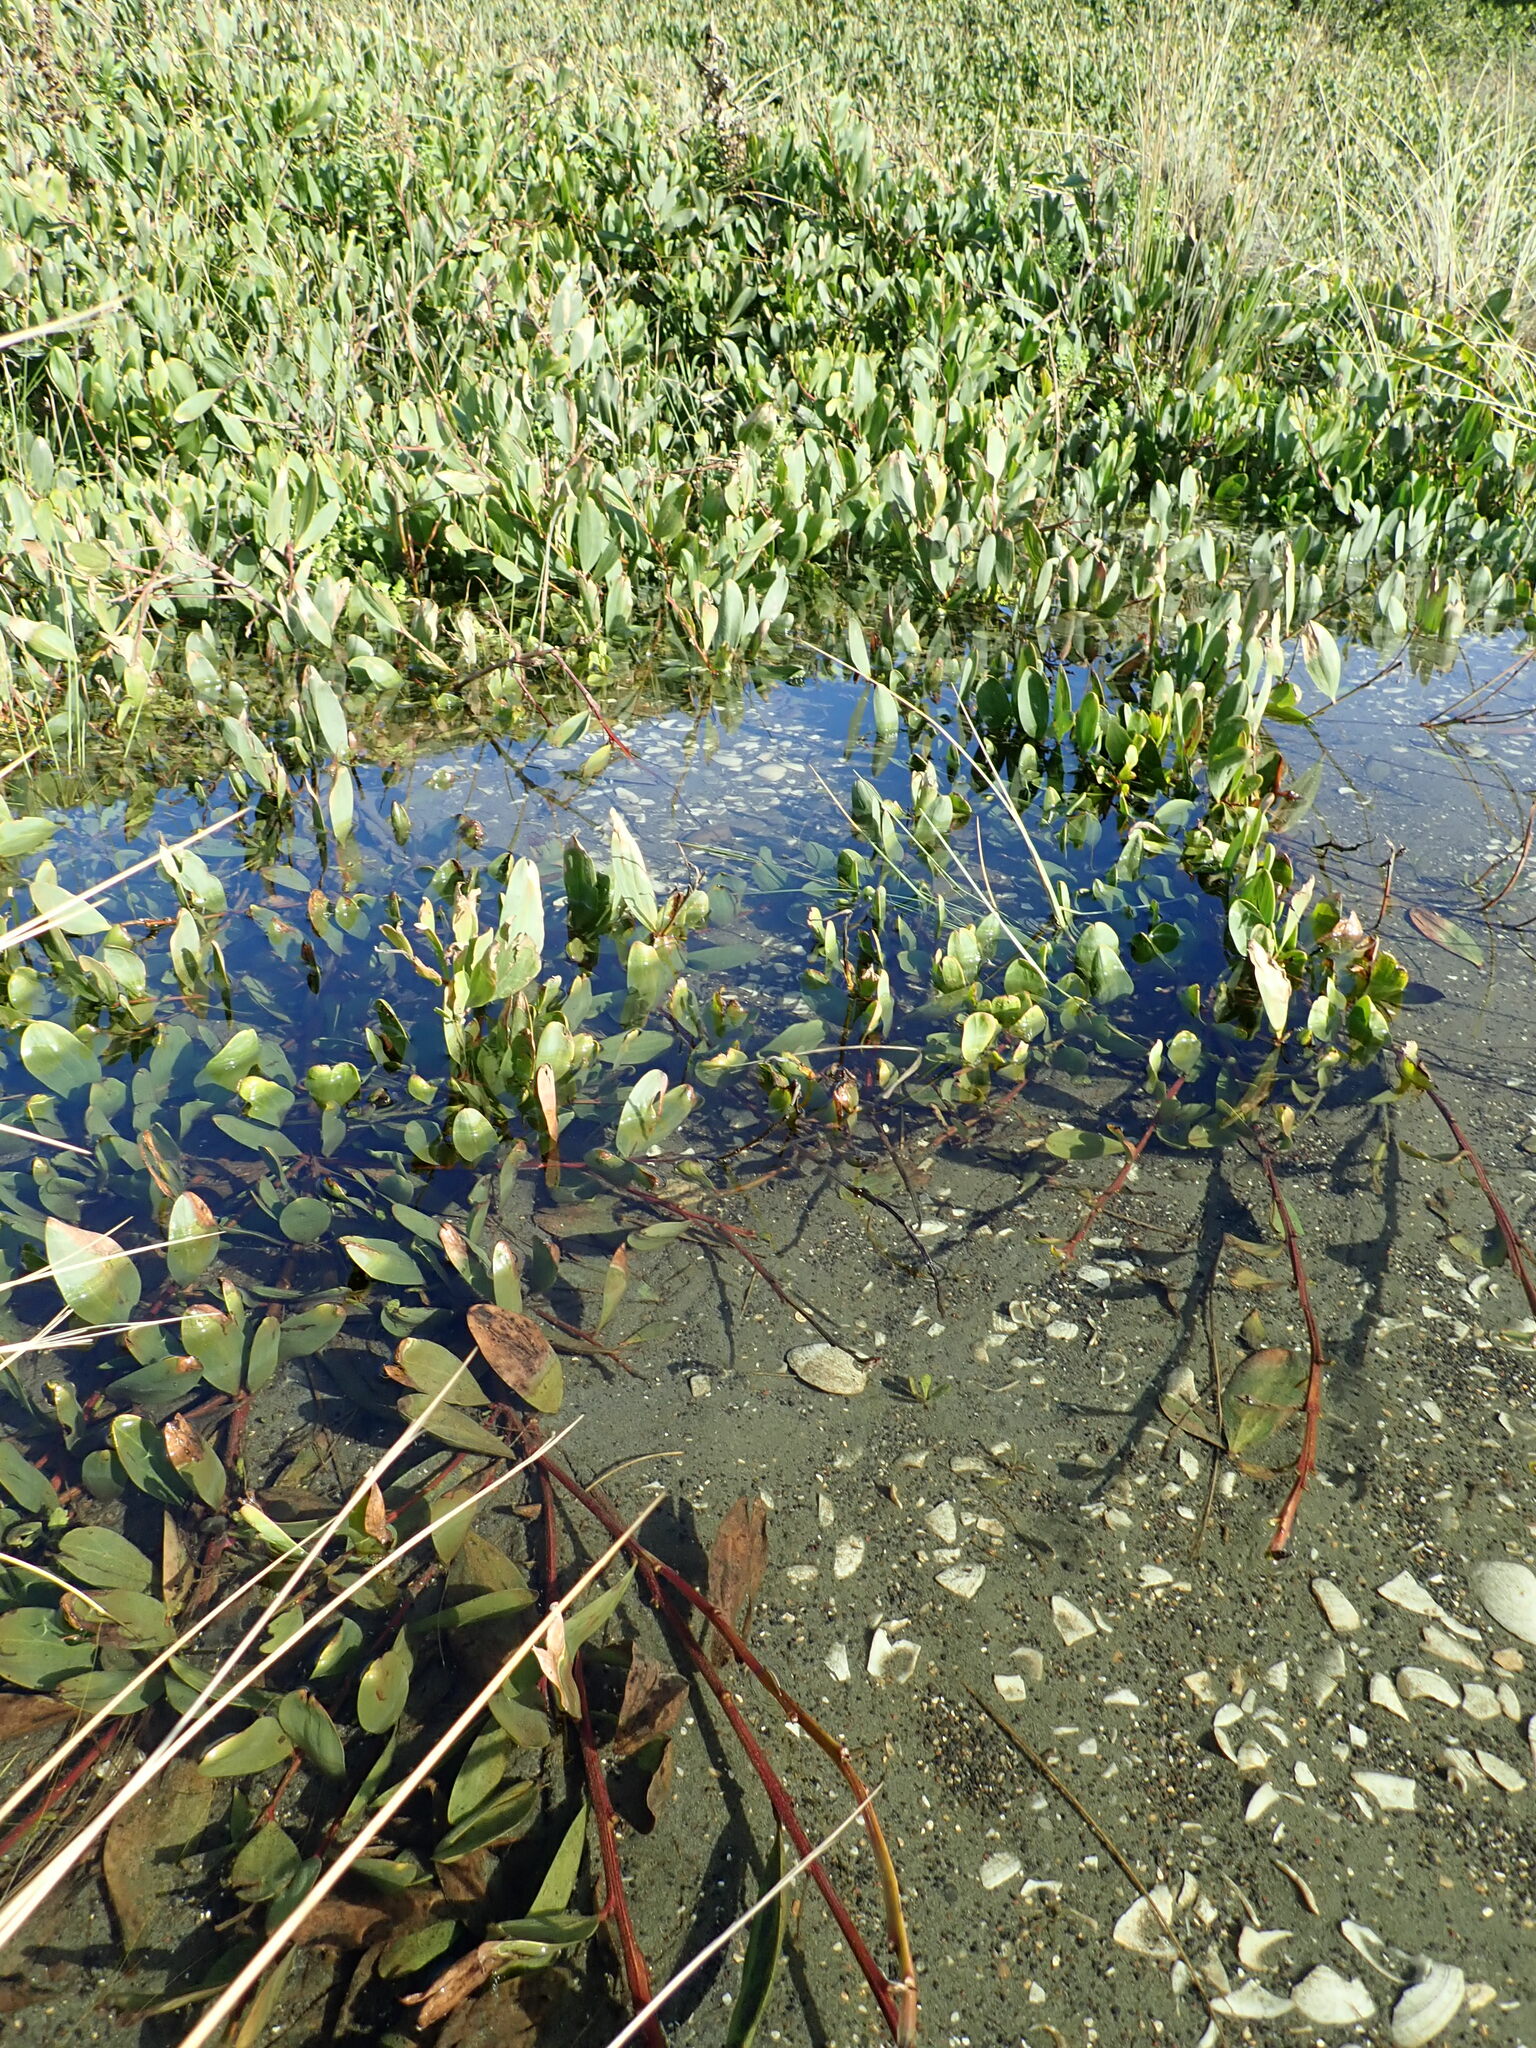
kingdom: Plantae
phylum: Tracheophyta
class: Magnoliopsida
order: Fabales
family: Fabaceae
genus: Acacia
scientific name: Acacia longifolia
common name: Sydney golden wattle
